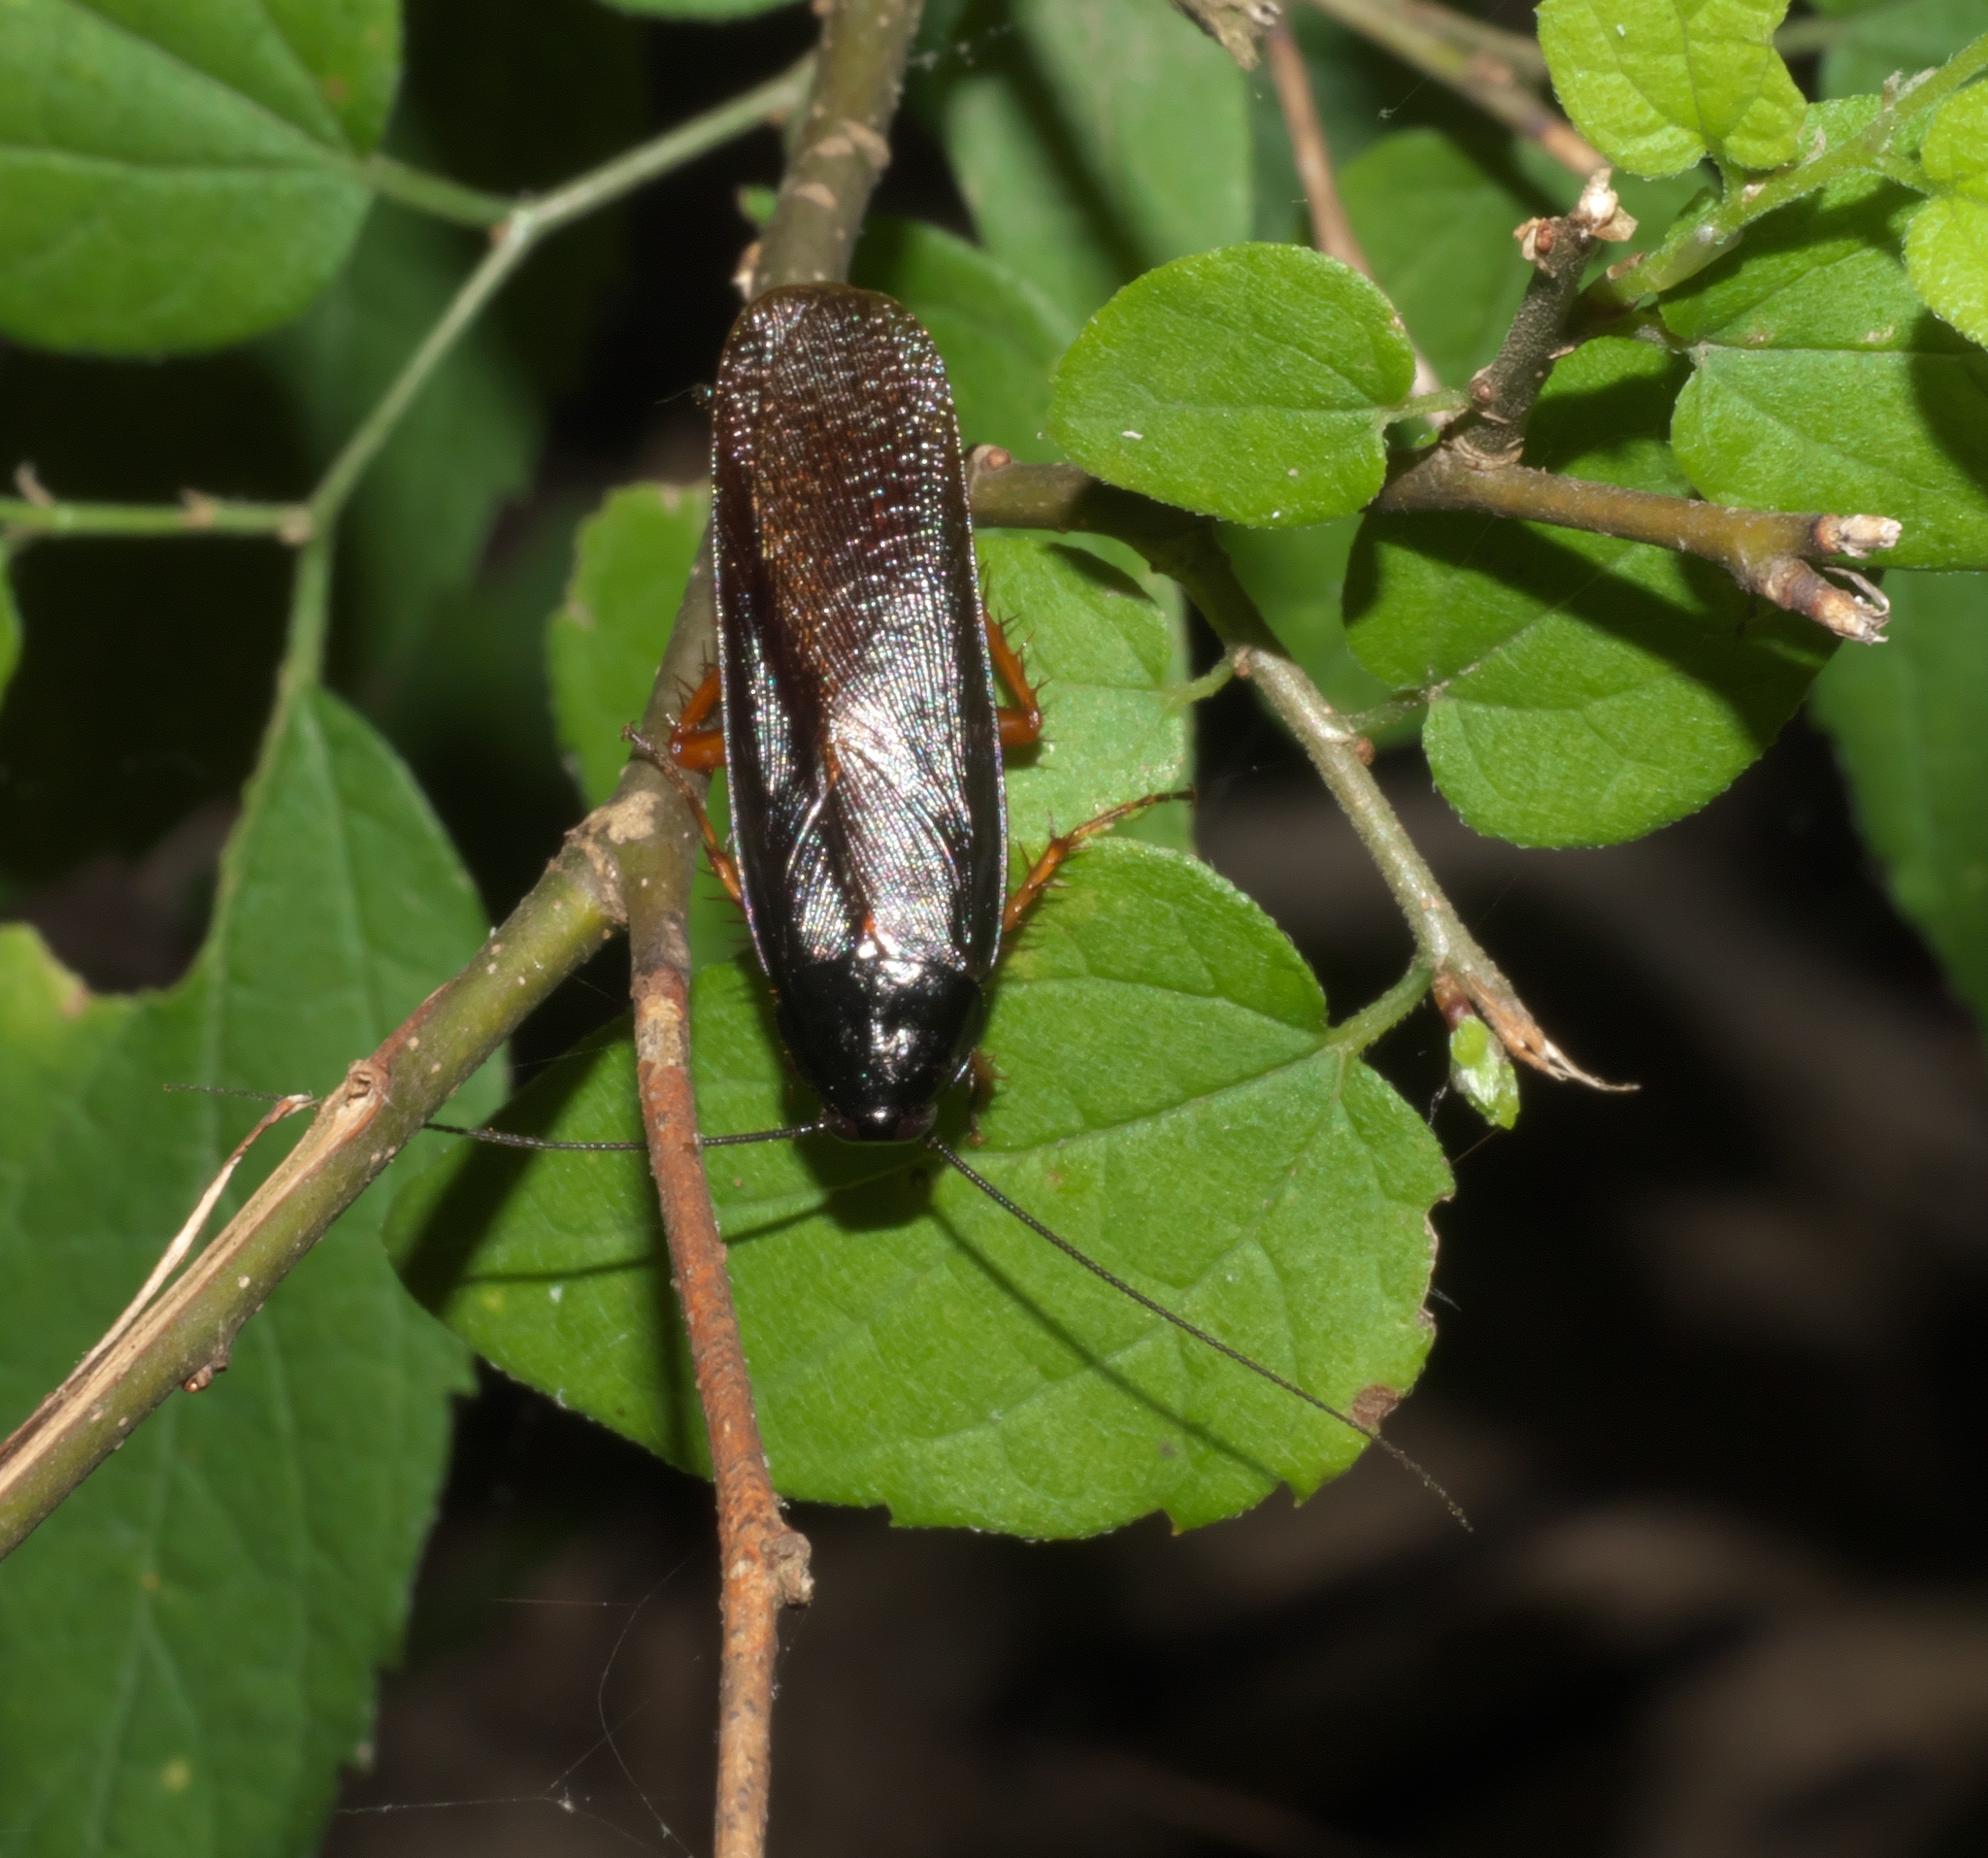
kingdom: Animalia
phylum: Arthropoda
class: Insecta
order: Blattodea
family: Ectobiidae
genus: Ischnoptera
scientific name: Ischnoptera deropeltiformis
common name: Dark wood cockroach
